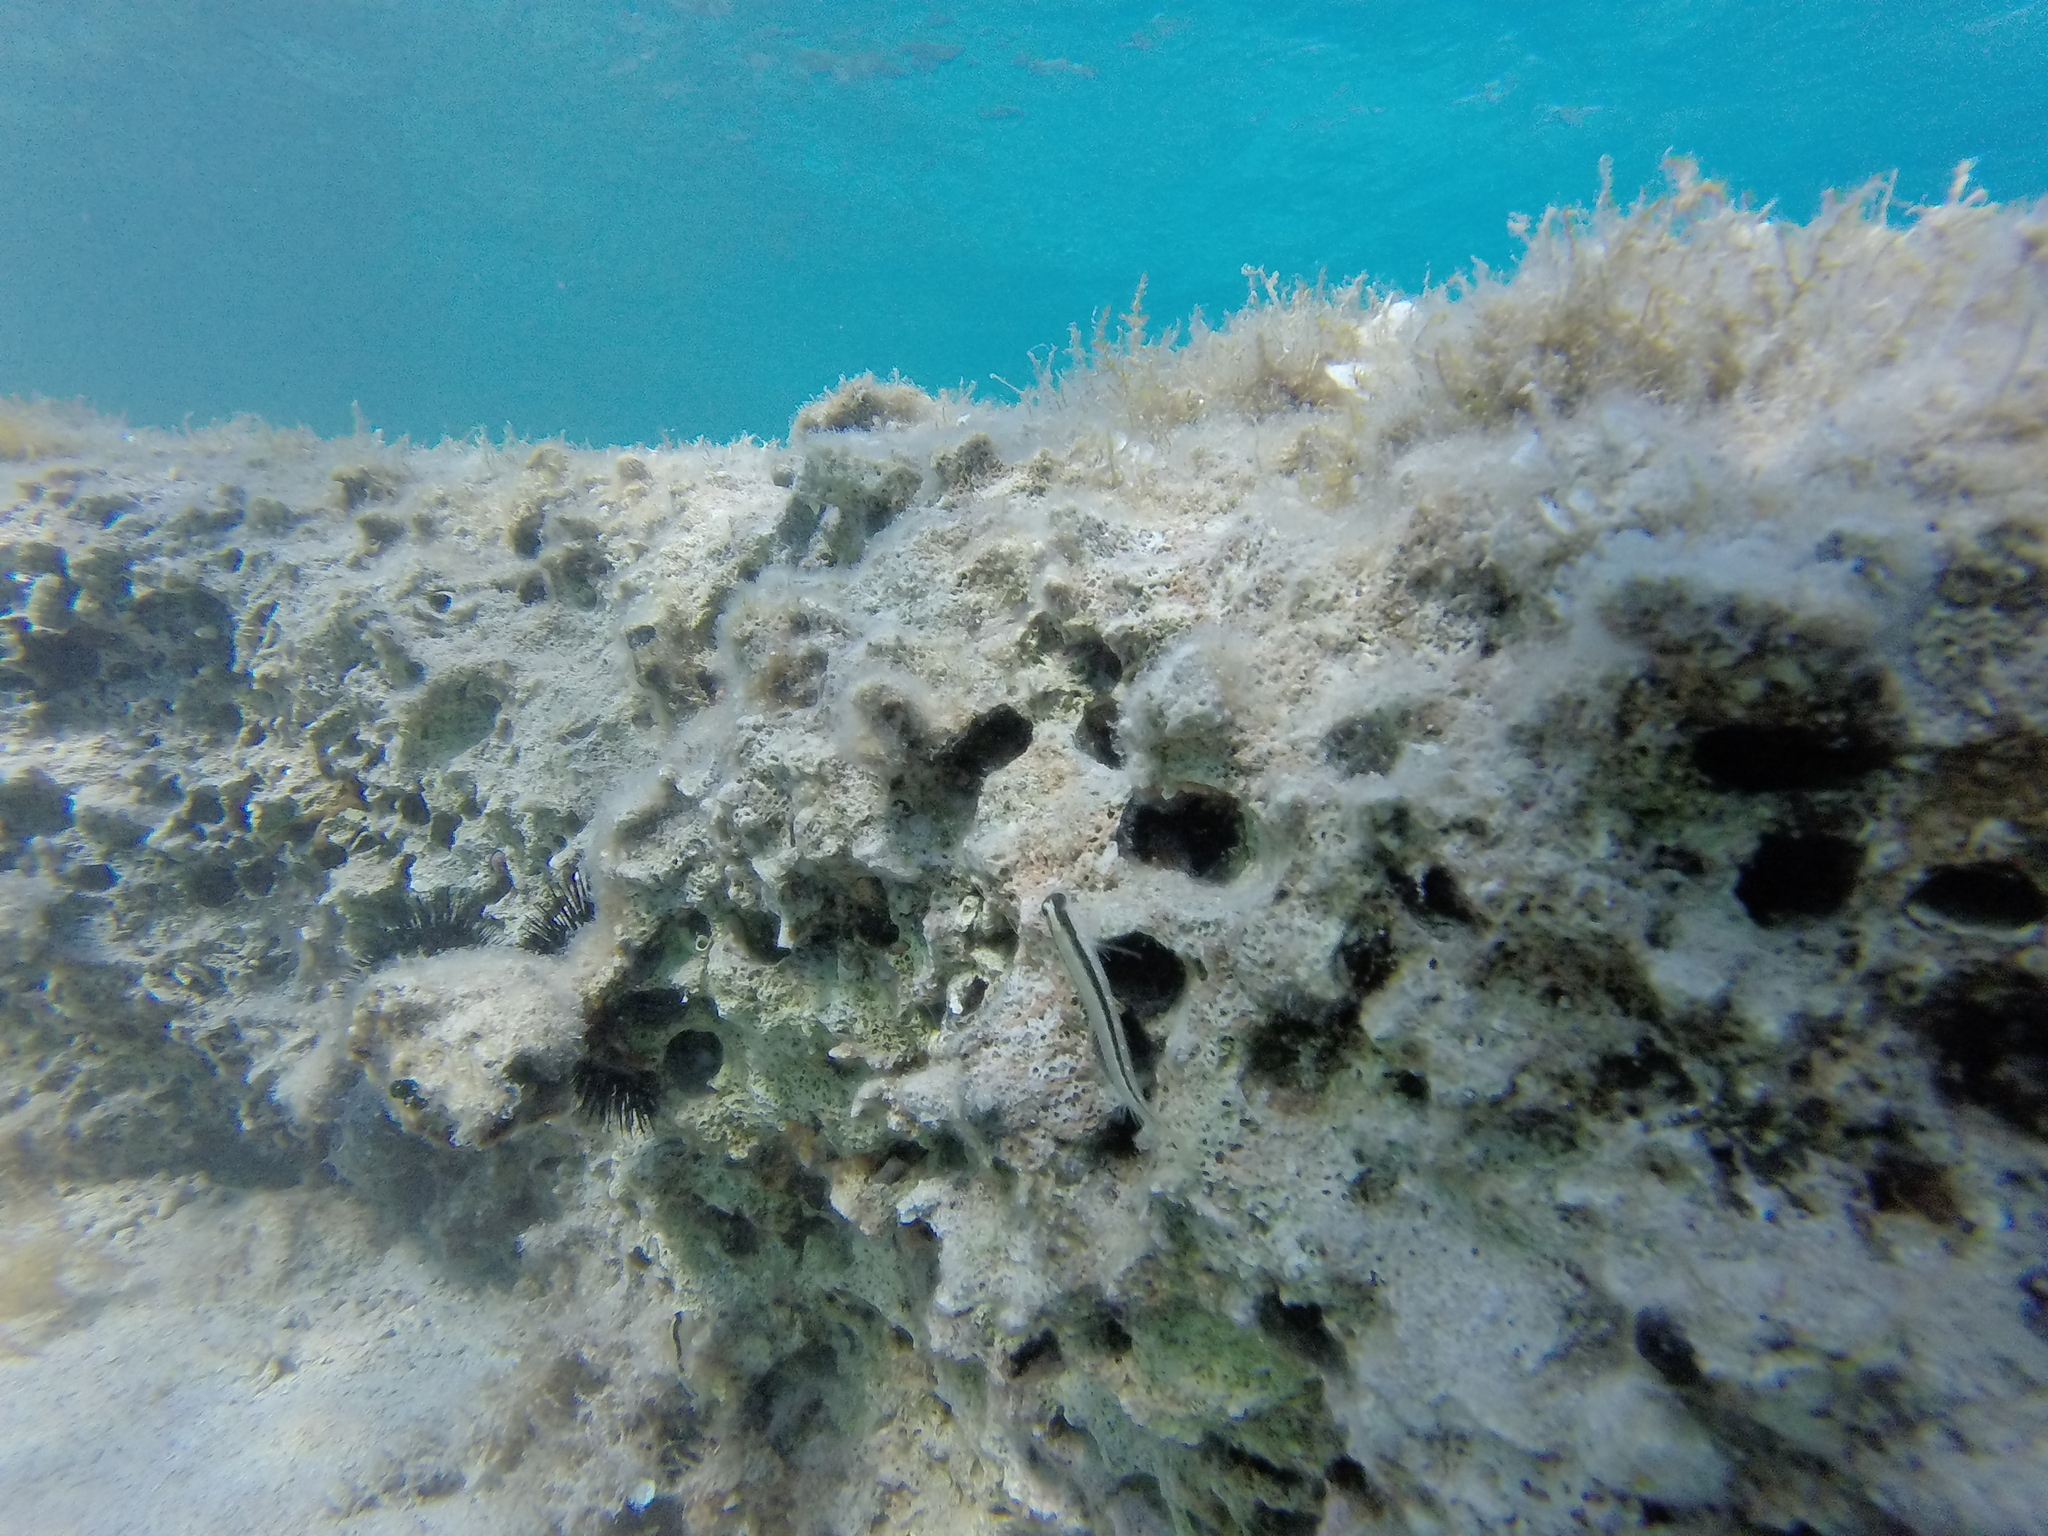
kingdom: Animalia
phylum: Chordata
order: Perciformes
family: Blenniidae
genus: Parablennius
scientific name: Parablennius rouxi
